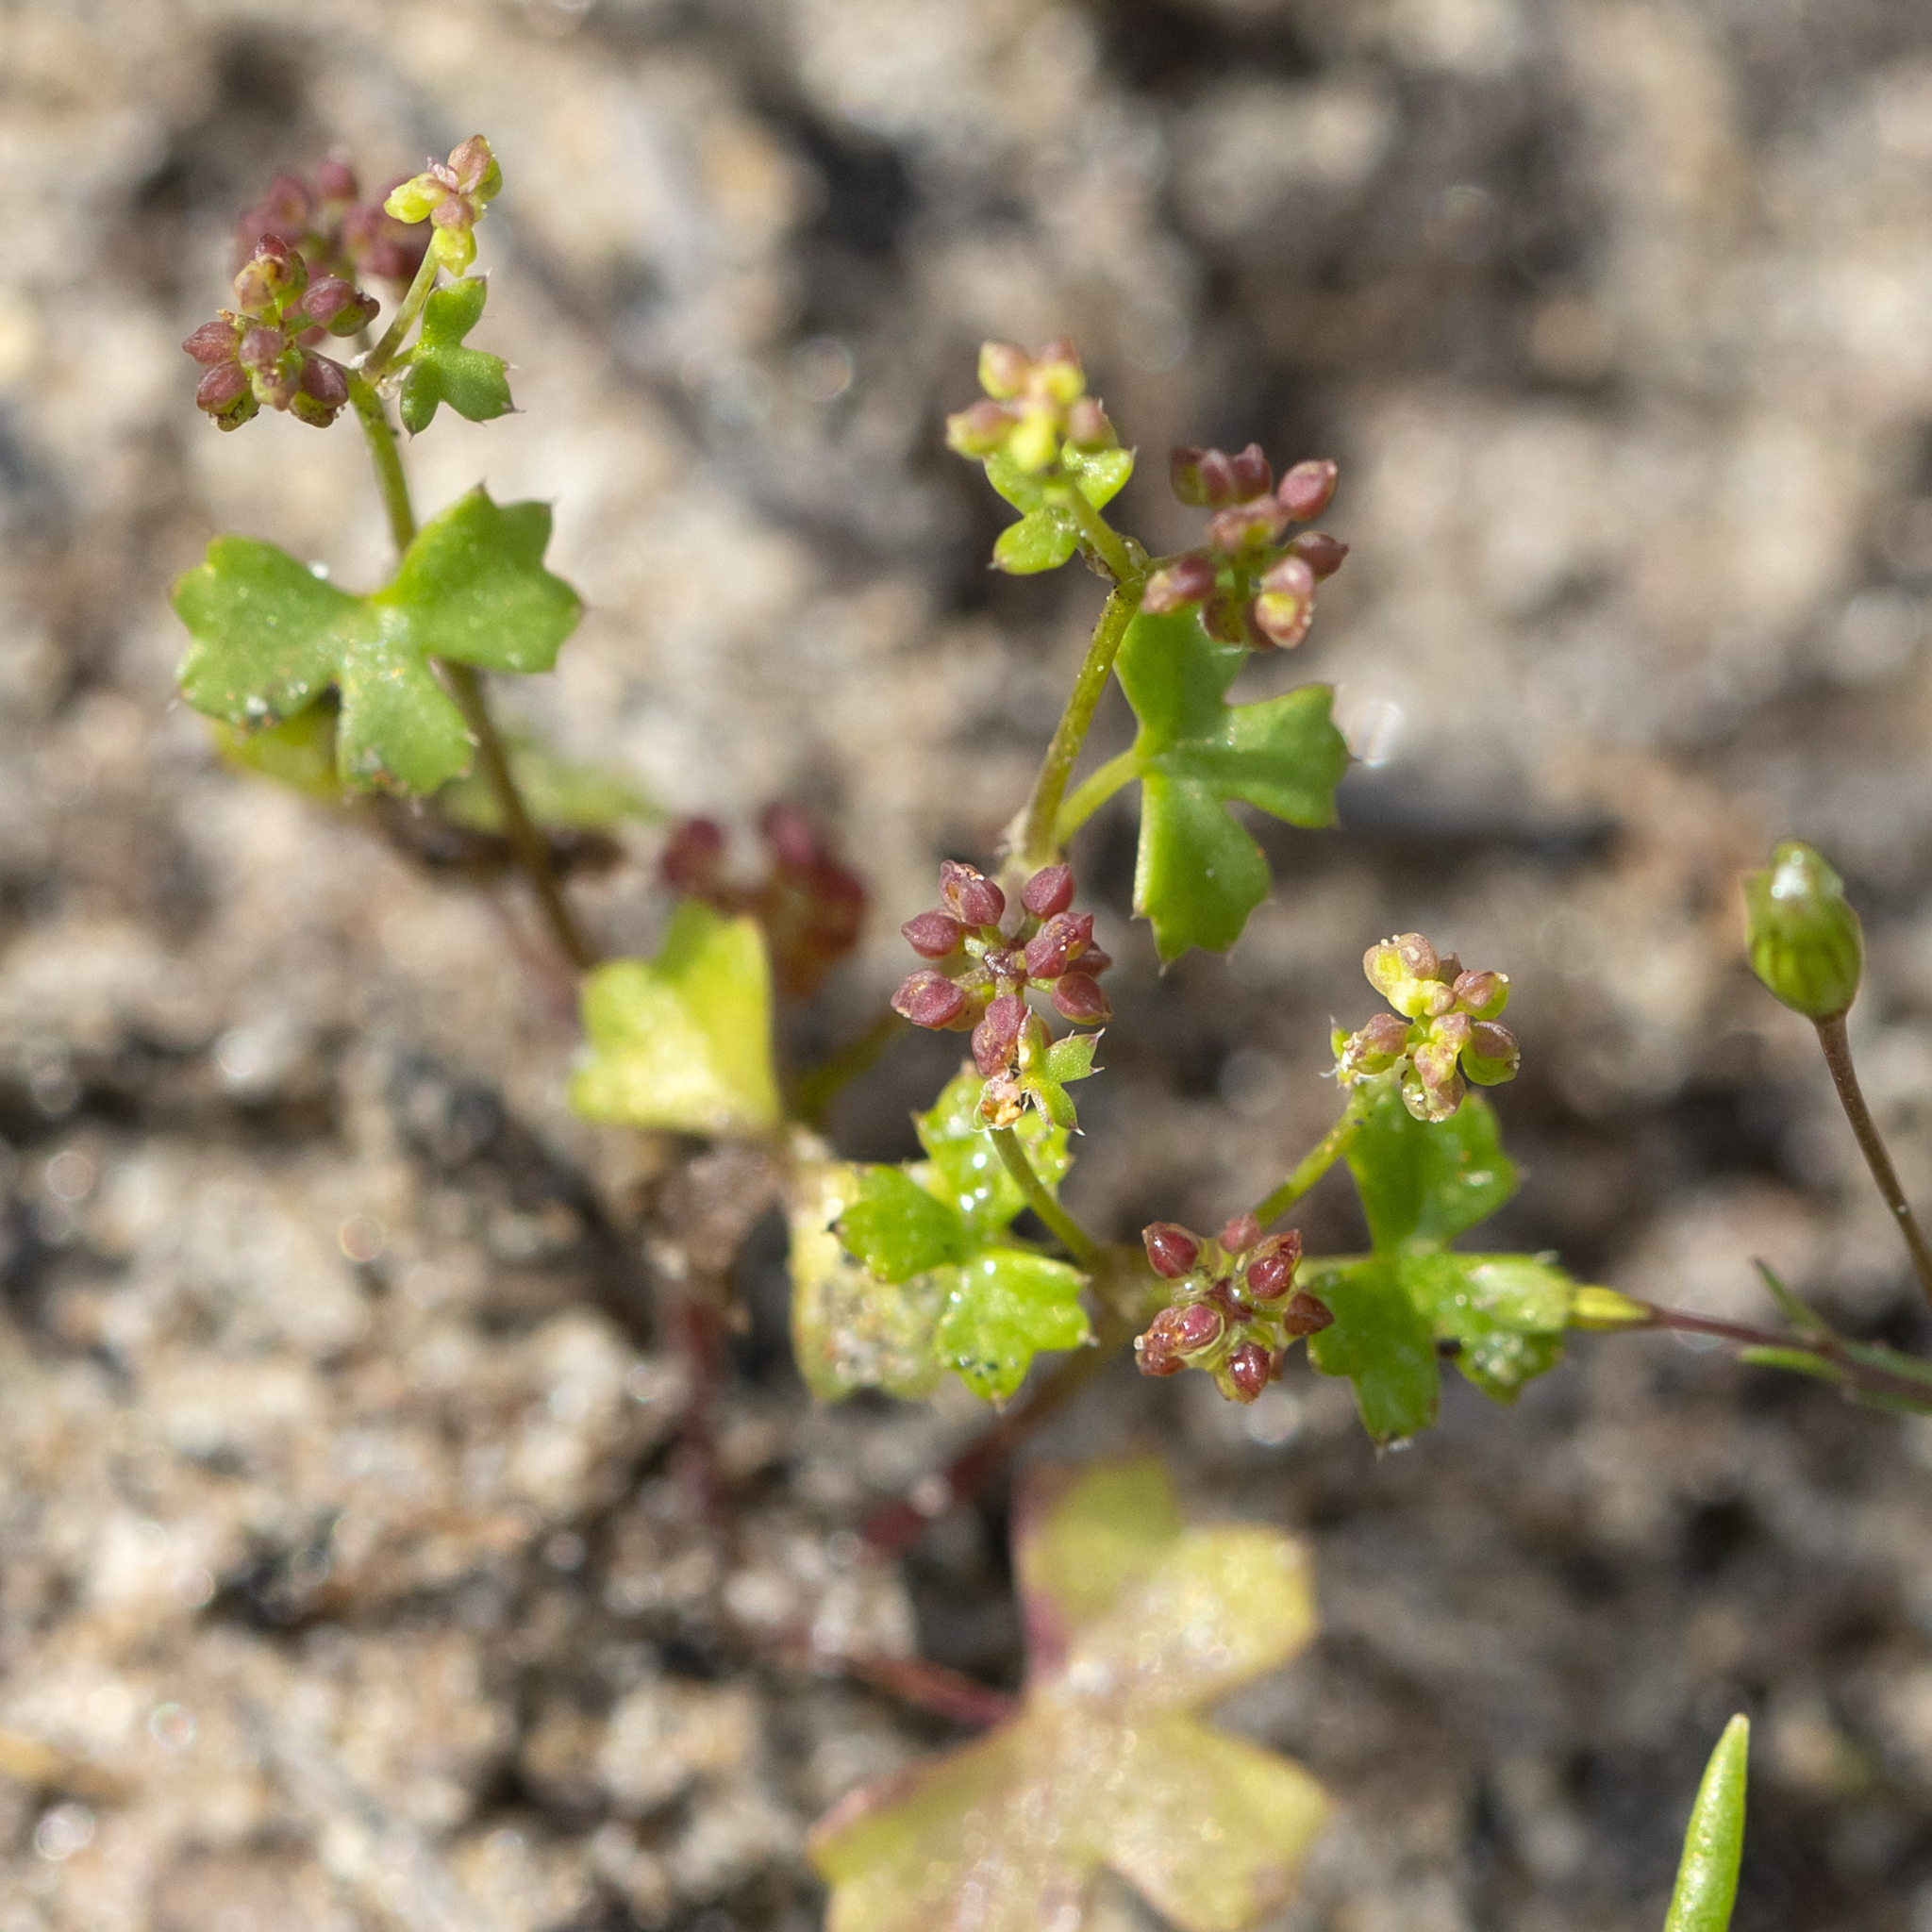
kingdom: Plantae
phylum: Tracheophyta
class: Magnoliopsida
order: Apiales
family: Araliaceae
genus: Hydrocotyle
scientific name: Hydrocotyle callicarpa
